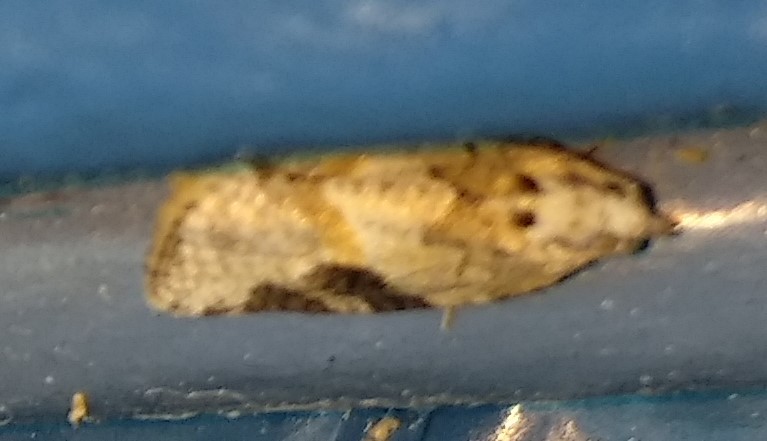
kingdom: Animalia
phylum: Arthropoda
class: Insecta
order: Lepidoptera
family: Tortricidae
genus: Argyrotaenia
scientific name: Argyrotaenia mariana
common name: Gray-banded leafroller moth
